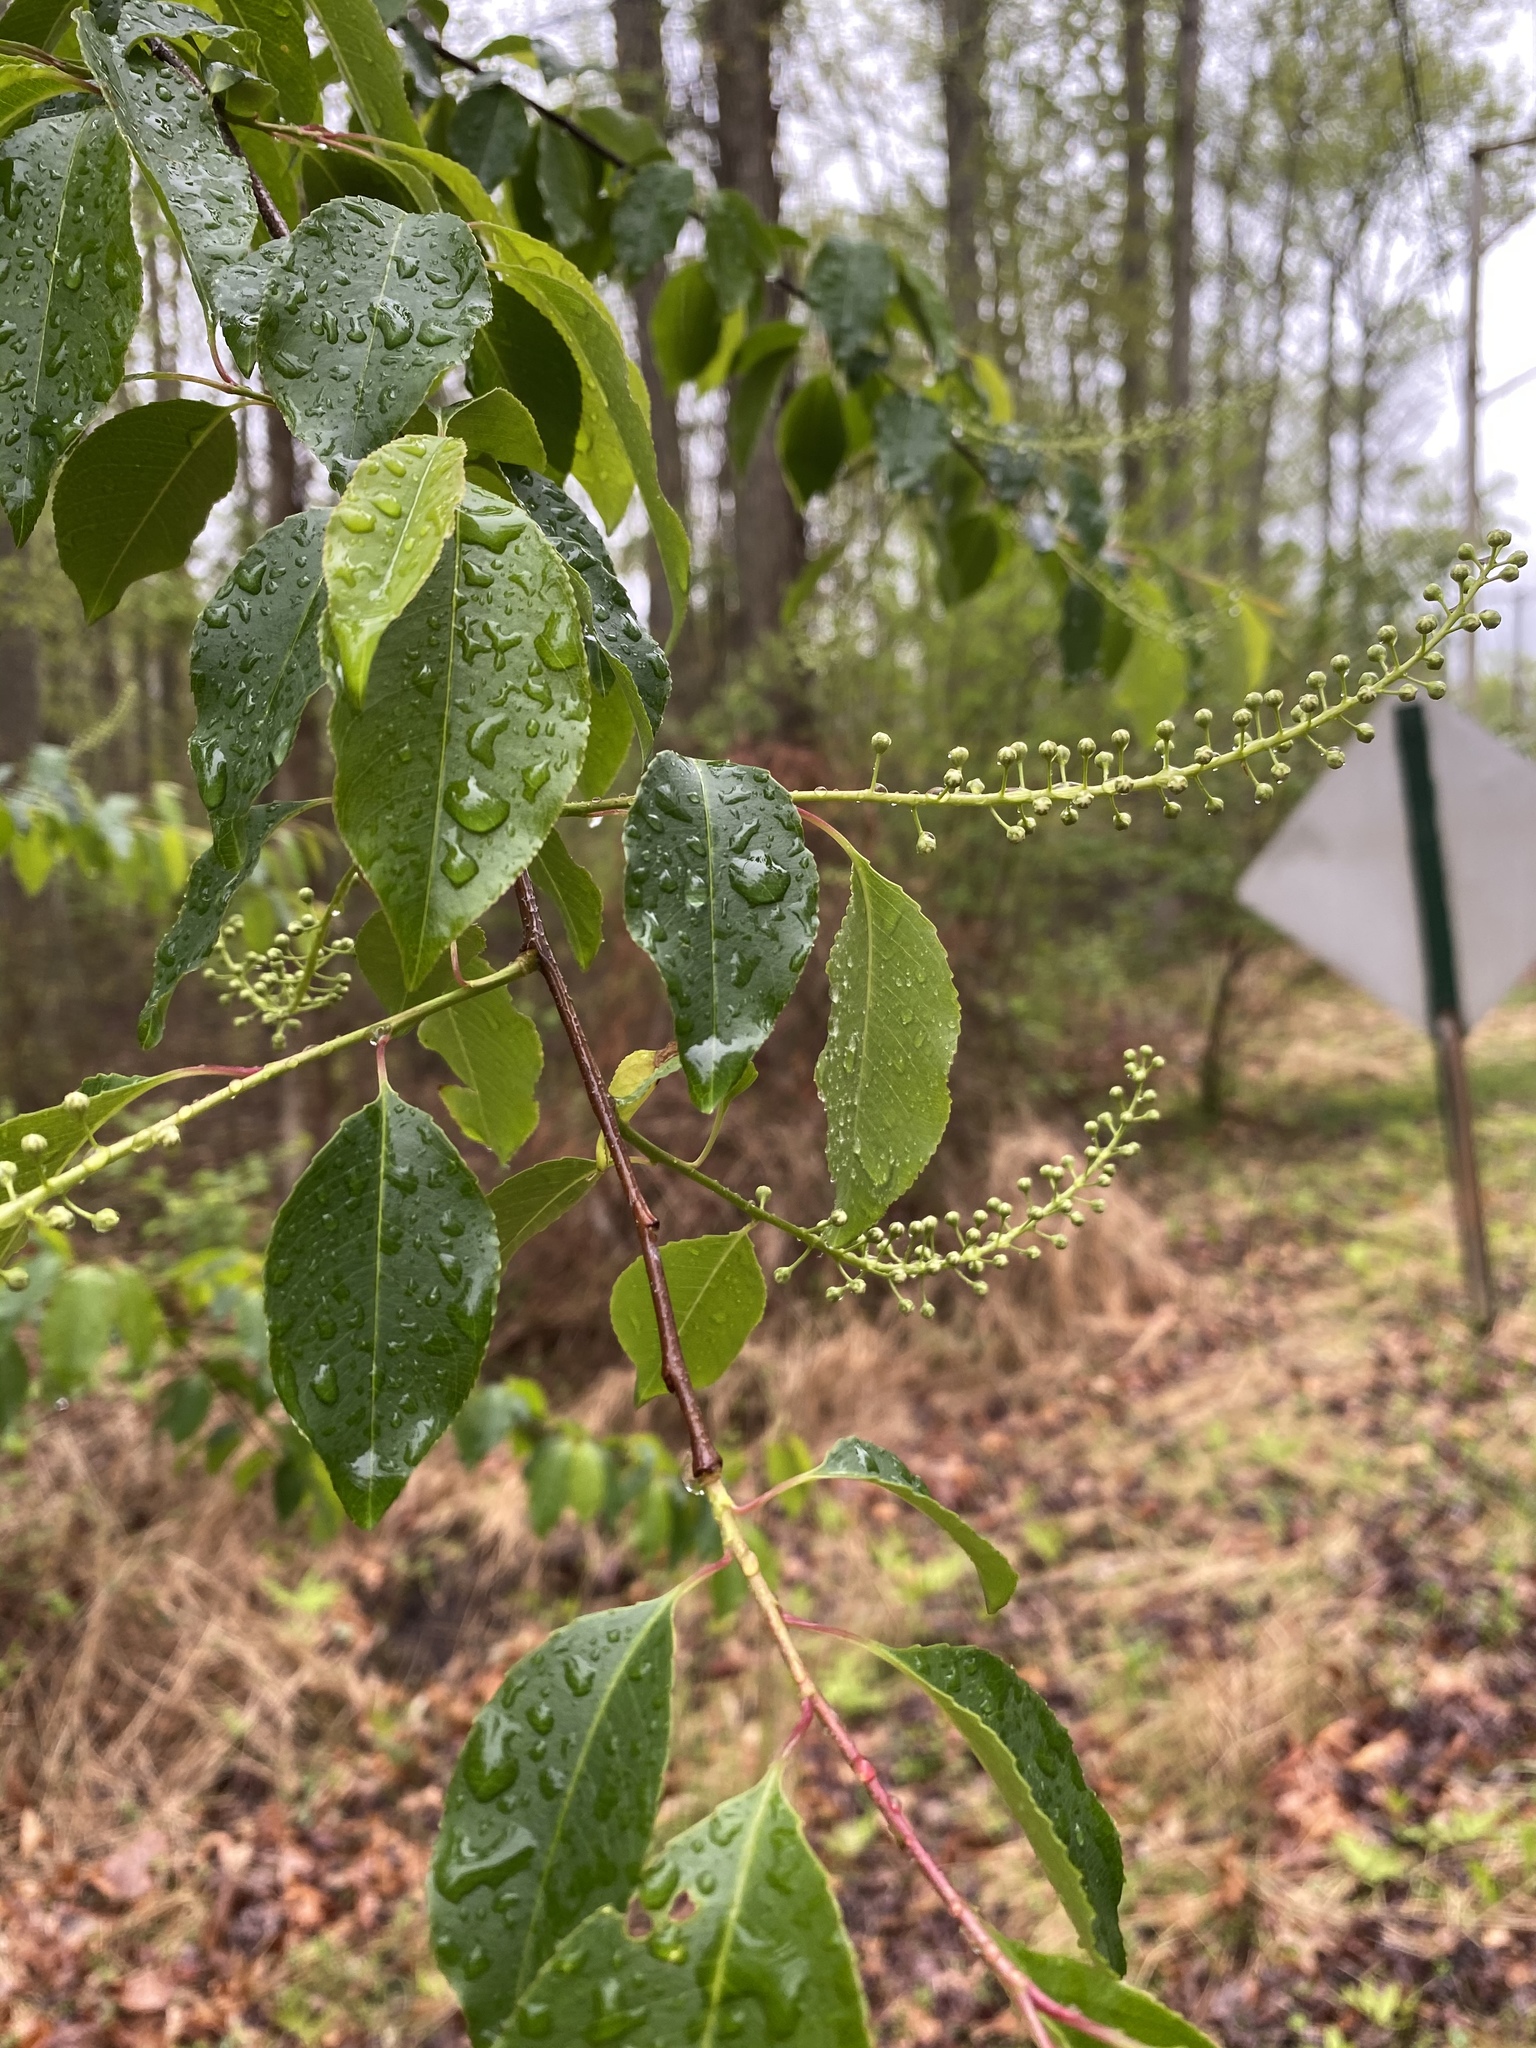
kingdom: Plantae
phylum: Tracheophyta
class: Magnoliopsida
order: Rosales
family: Rosaceae
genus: Prunus
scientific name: Prunus serotina
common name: Black cherry
